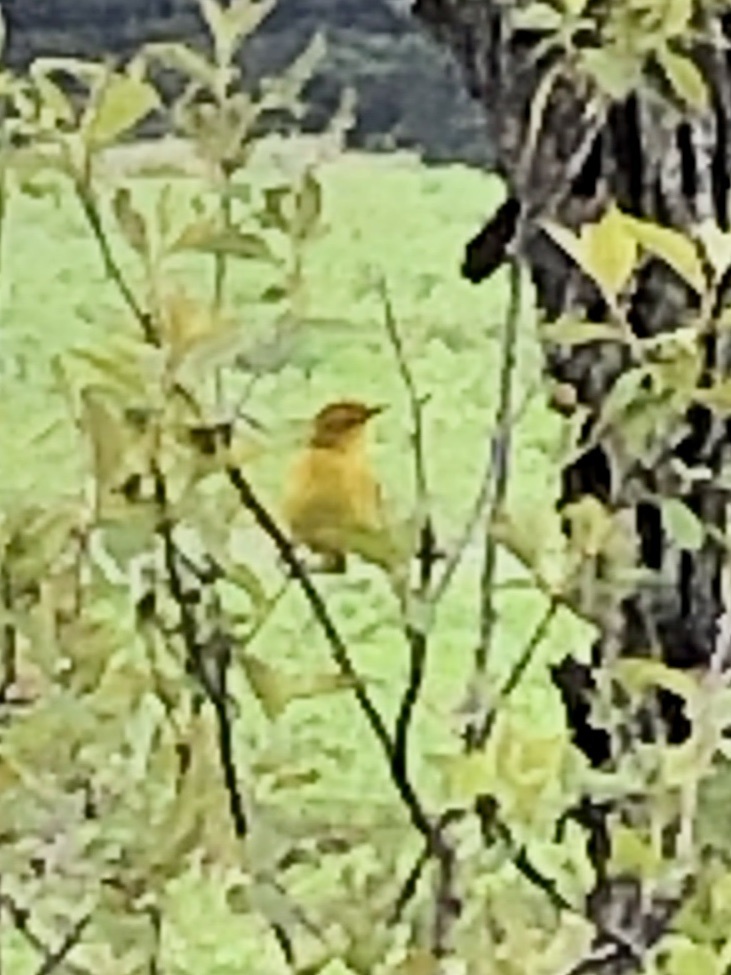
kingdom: Animalia
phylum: Chordata
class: Aves
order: Passeriformes
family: Parulidae
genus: Setophaga
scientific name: Setophaga petechia
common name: Yellow warbler
